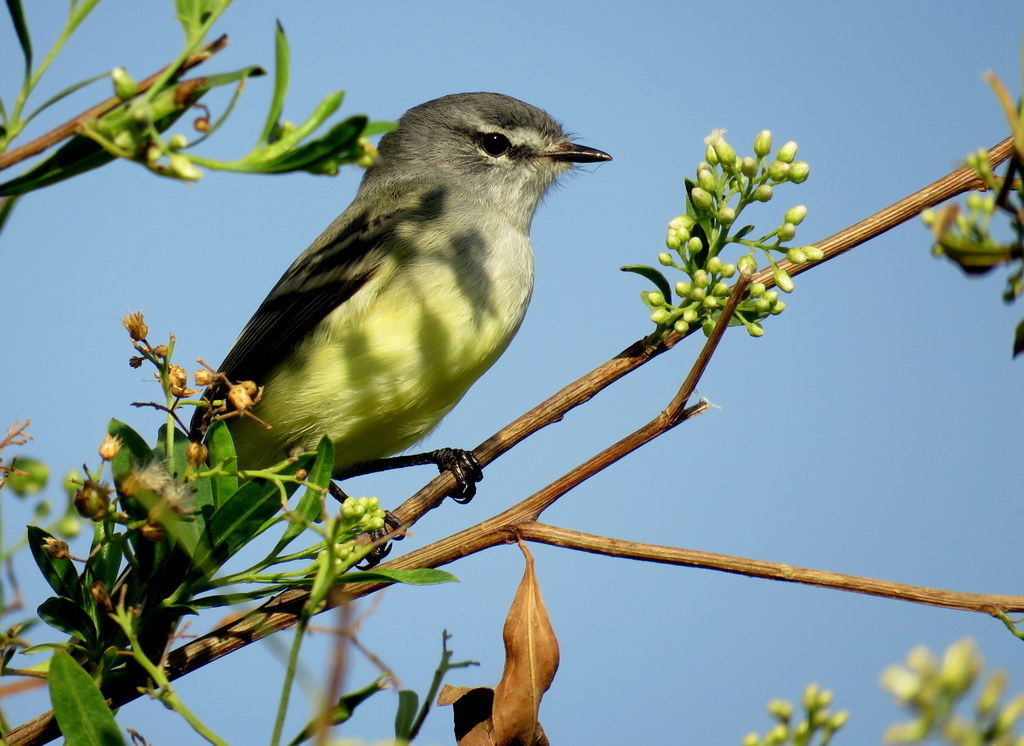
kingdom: Animalia
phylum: Chordata
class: Aves
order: Passeriformes
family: Tyrannidae
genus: Serpophaga
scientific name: Serpophaga subcristata
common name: White-crested tyrannulet
